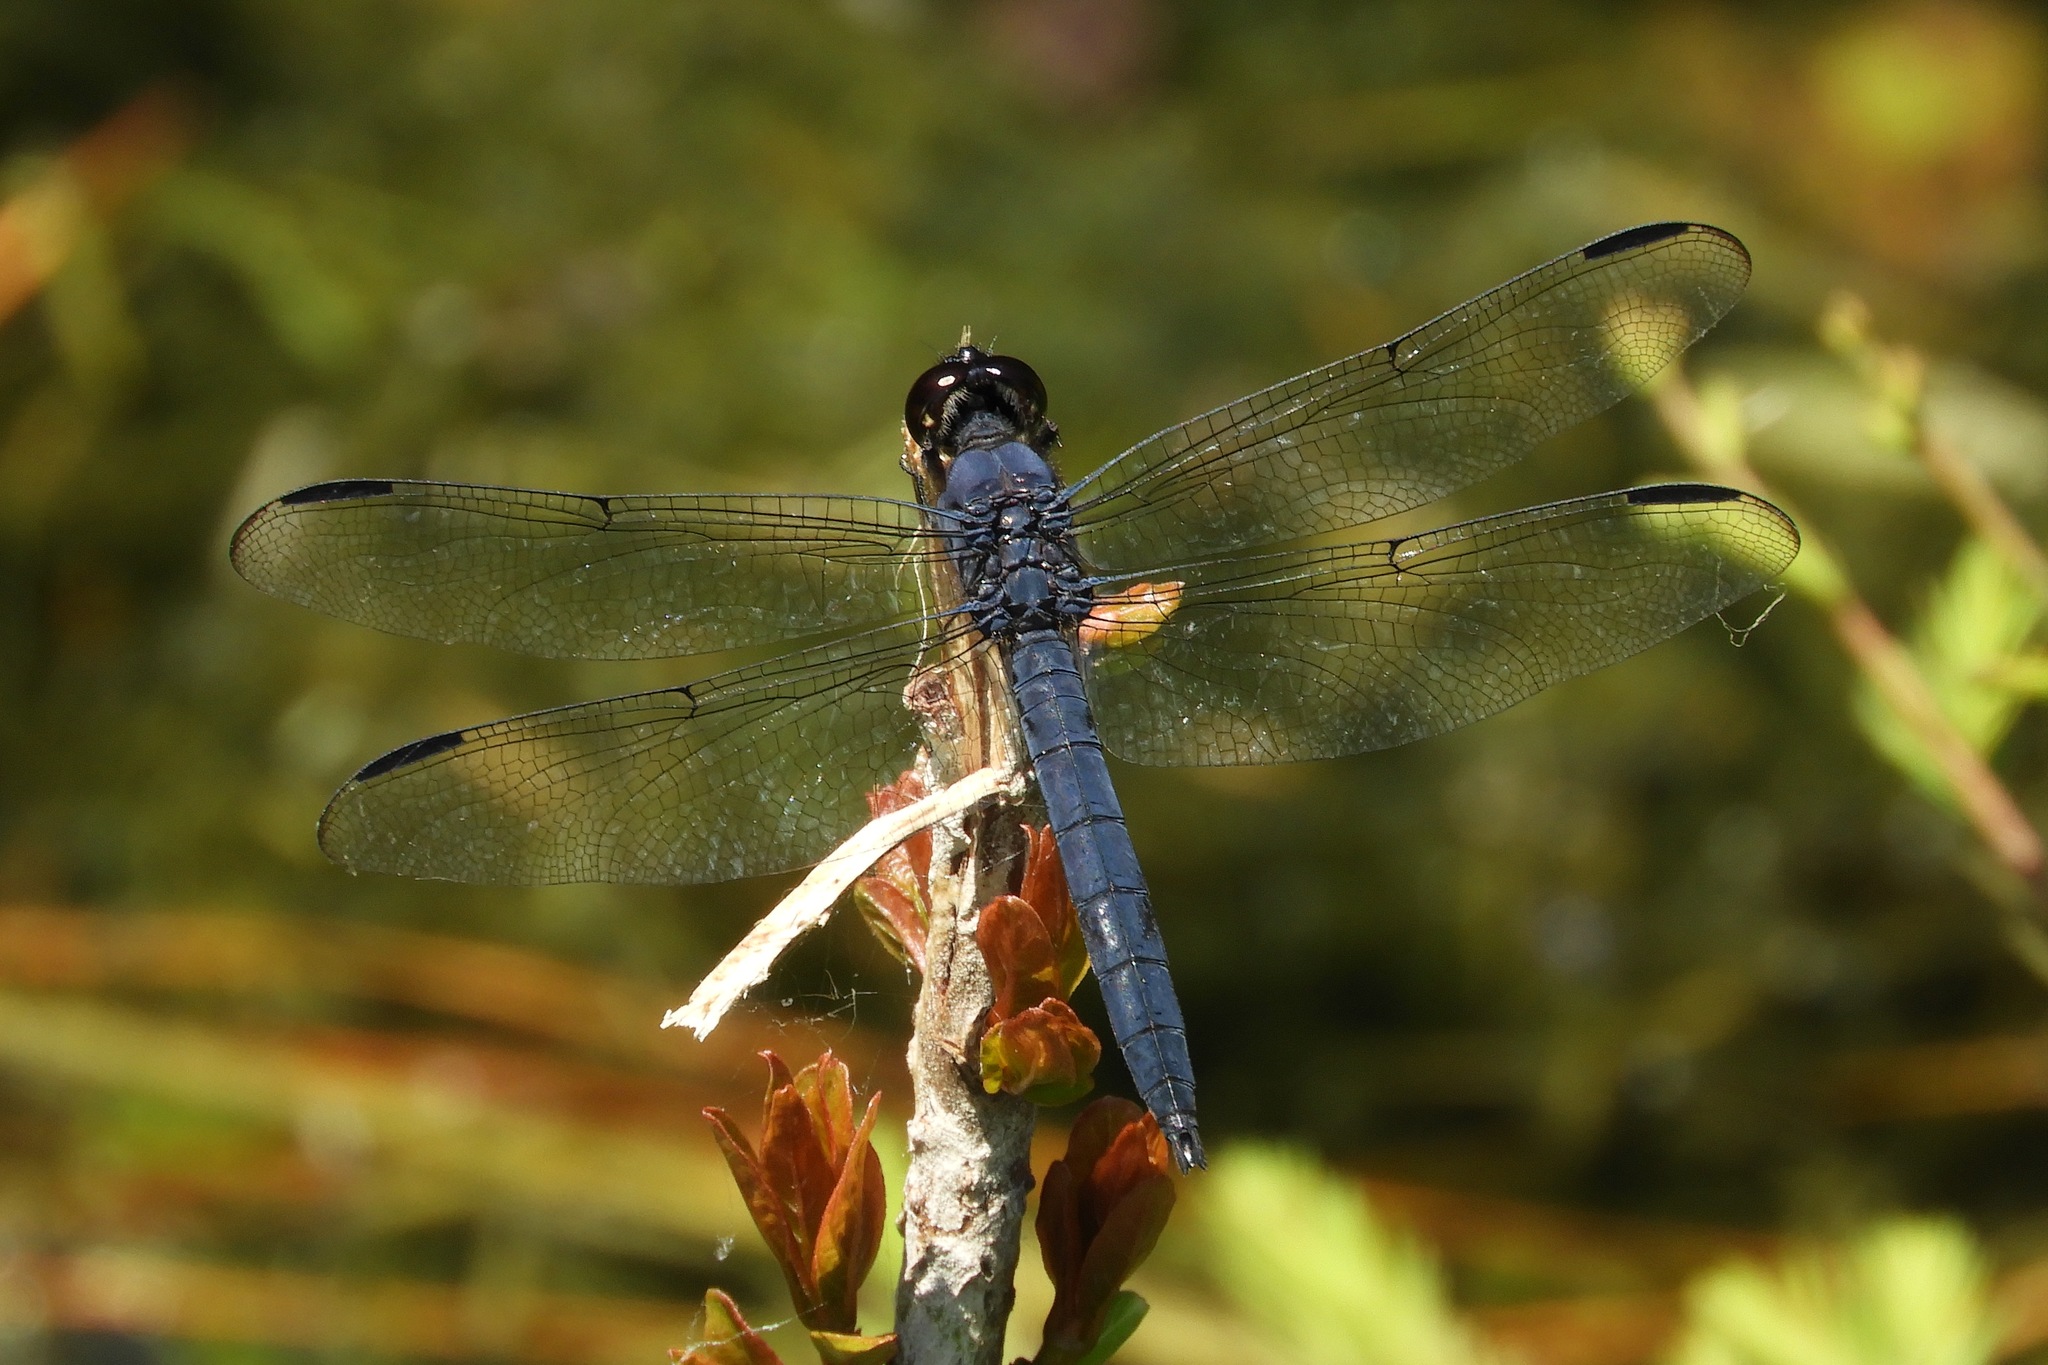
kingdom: Animalia
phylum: Arthropoda
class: Insecta
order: Odonata
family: Libellulidae
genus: Libellula
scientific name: Libellula incesta
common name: Slaty skimmer
